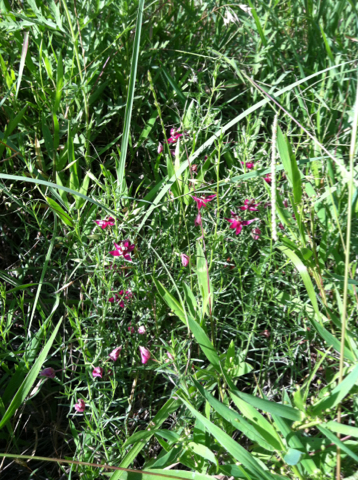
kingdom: Plantae
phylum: Tracheophyta
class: Magnoliopsida
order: Zygophyllales
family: Krameriaceae
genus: Krameria
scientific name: Krameria lanceolata
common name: Ratany
